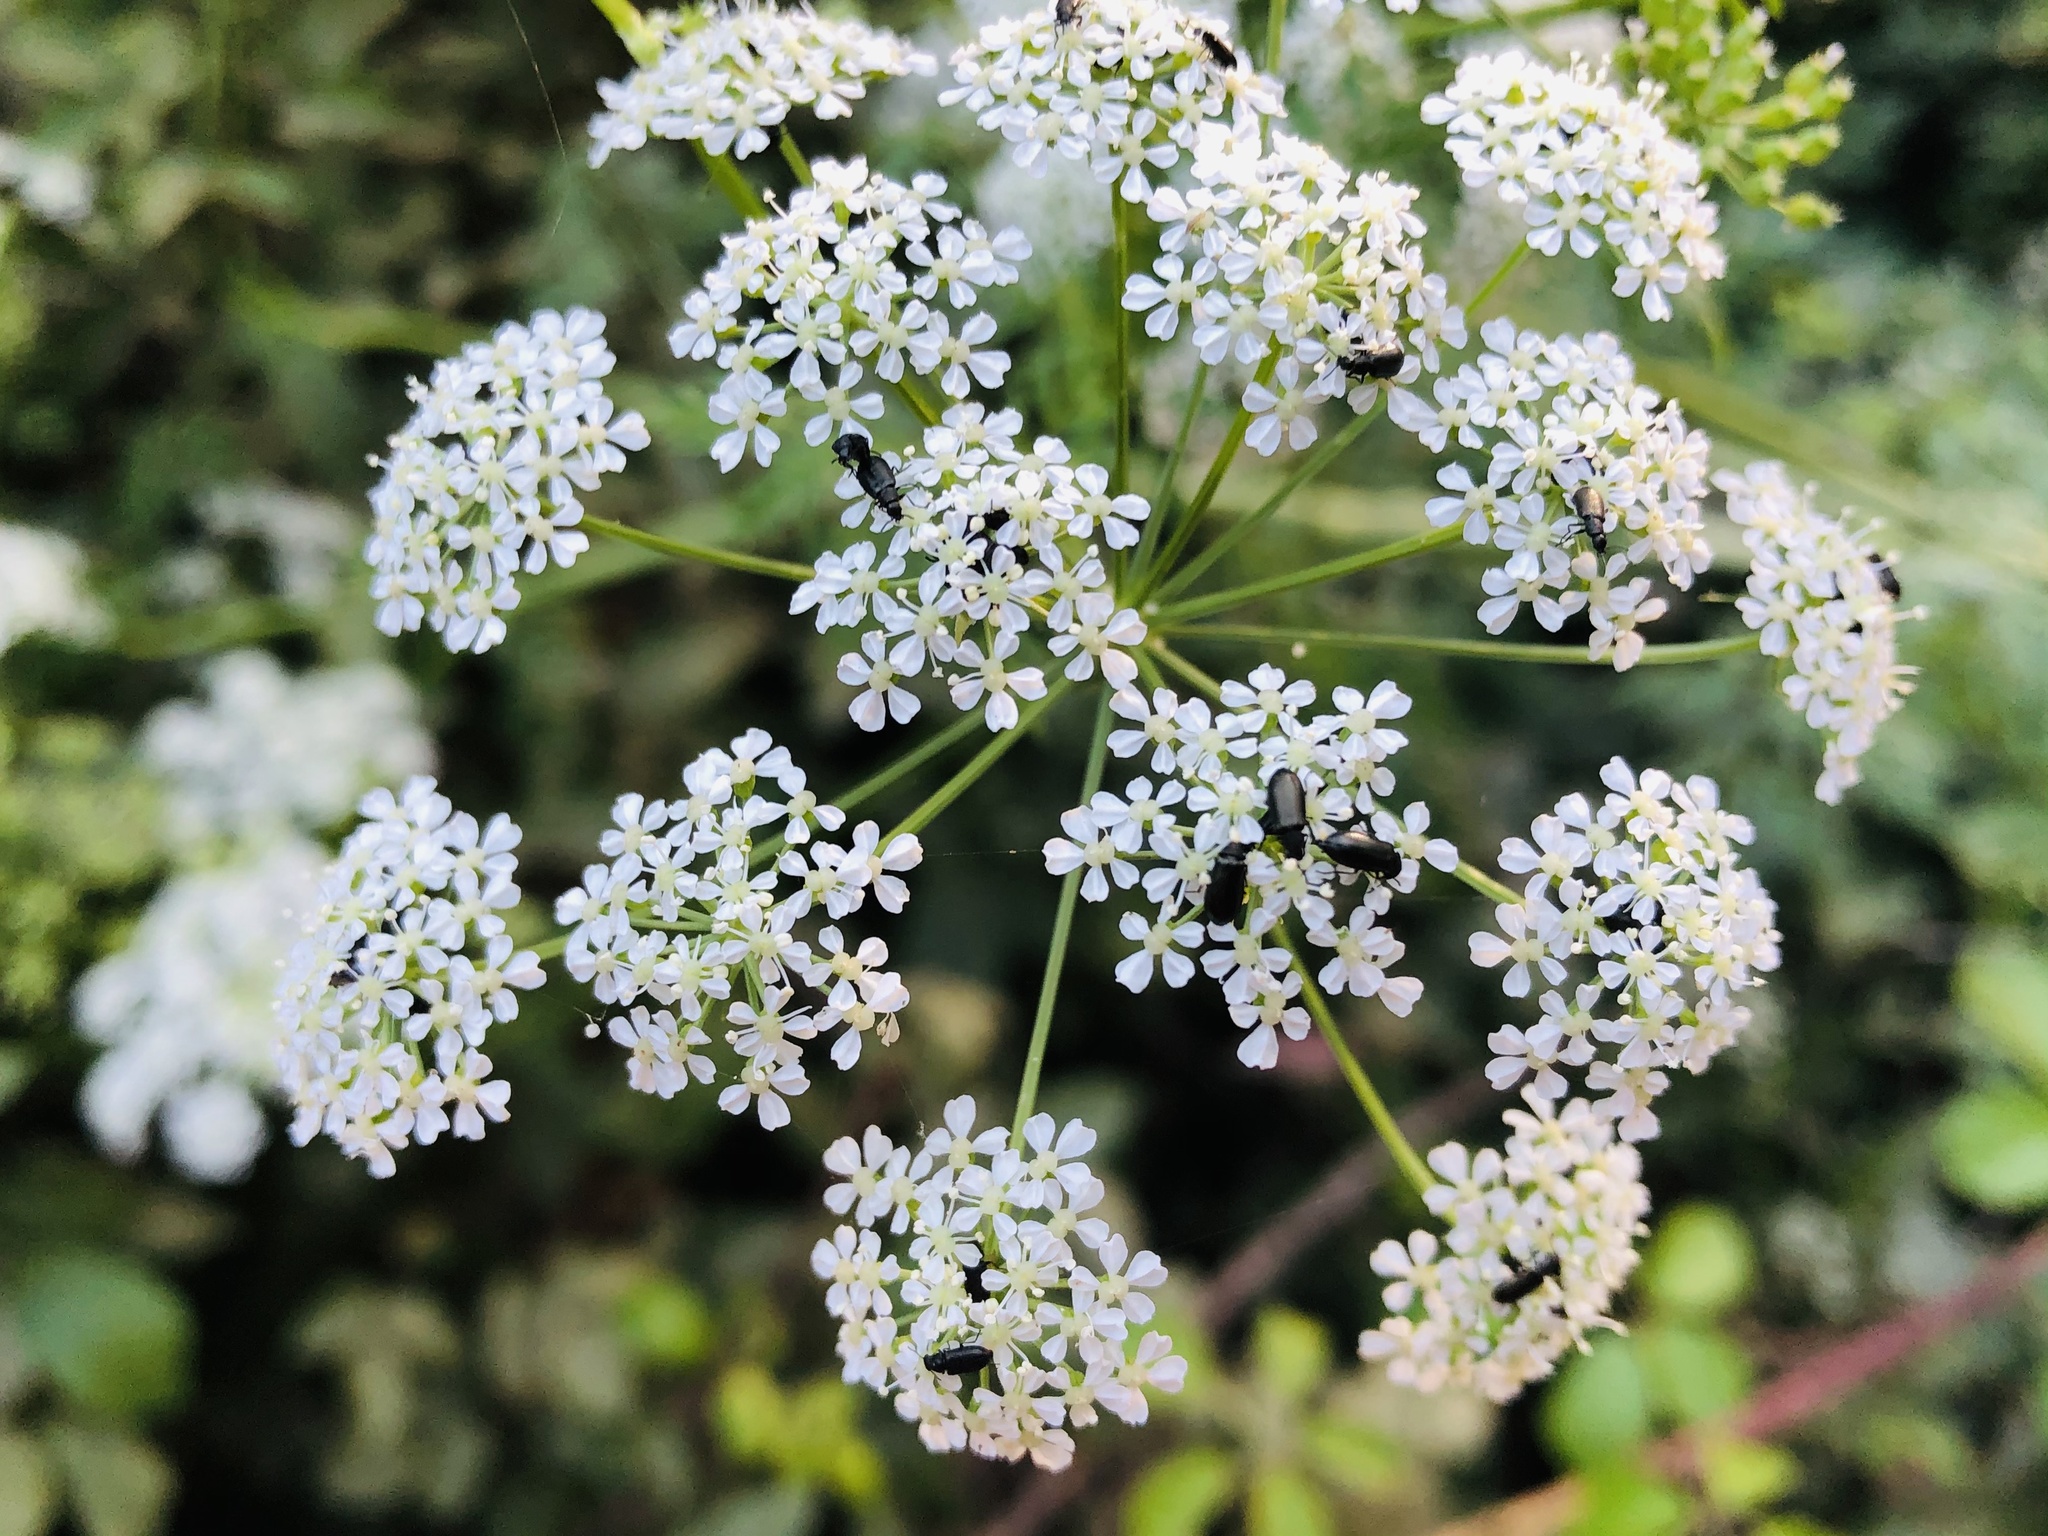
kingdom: Plantae
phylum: Tracheophyta
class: Magnoliopsida
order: Apiales
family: Apiaceae
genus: Conium
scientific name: Conium maculatum
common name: Hemlock
